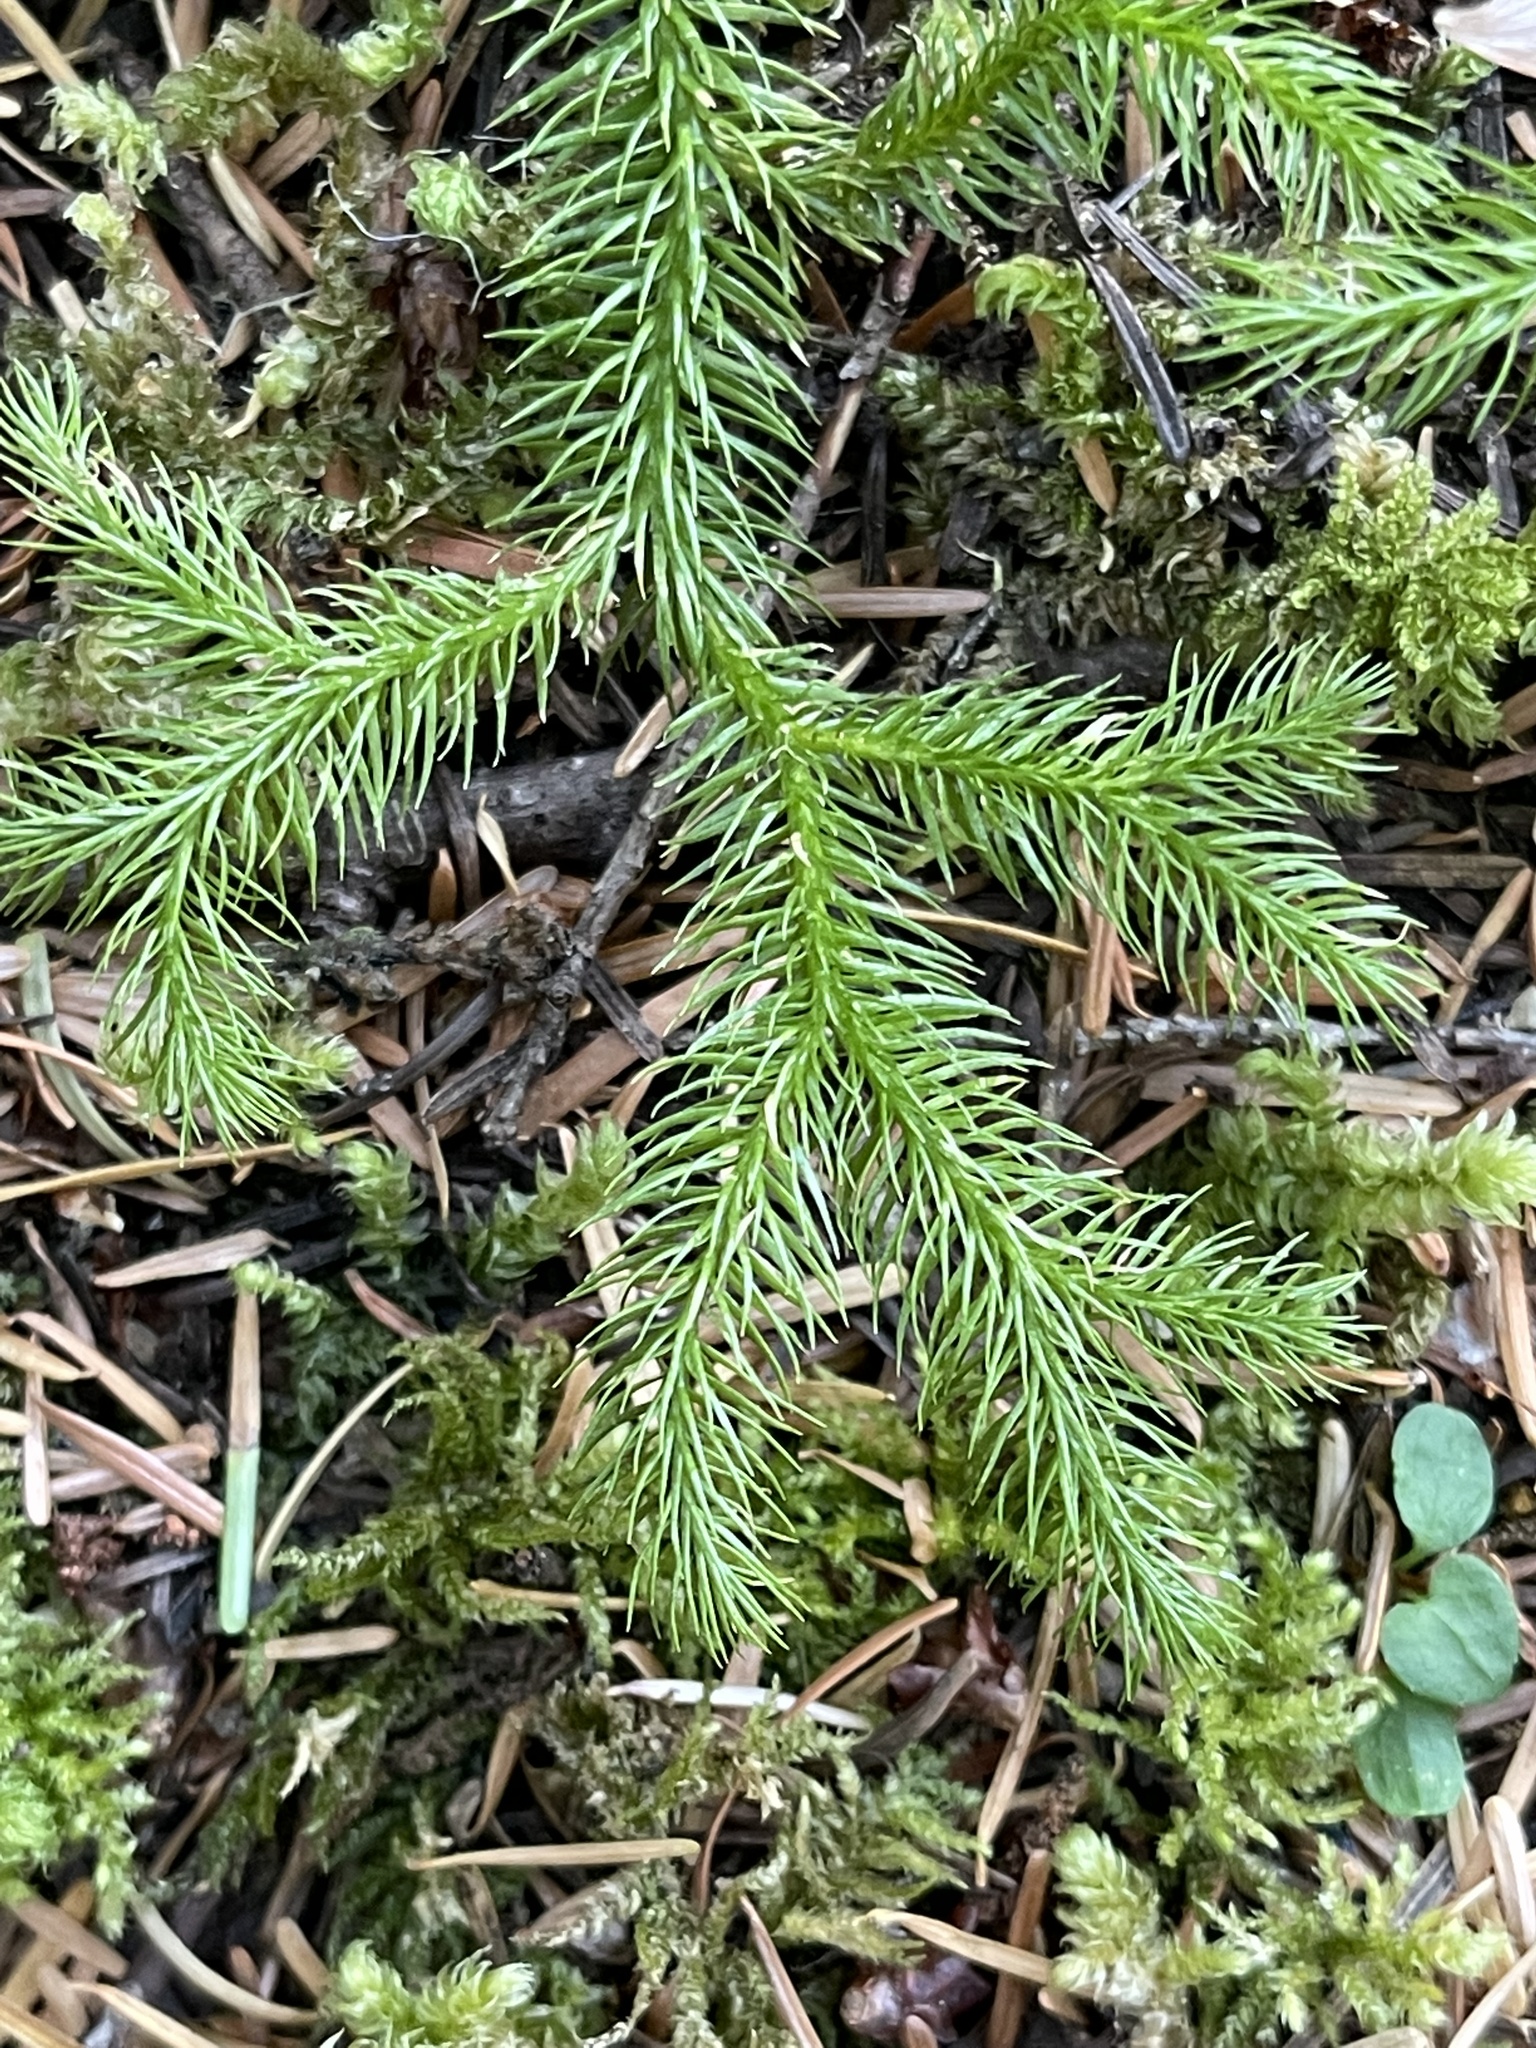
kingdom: Plantae
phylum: Tracheophyta
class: Lycopodiopsida
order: Lycopodiales
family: Lycopodiaceae
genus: Lycopodium
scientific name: Lycopodium clavatum
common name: Stag's-horn clubmoss
